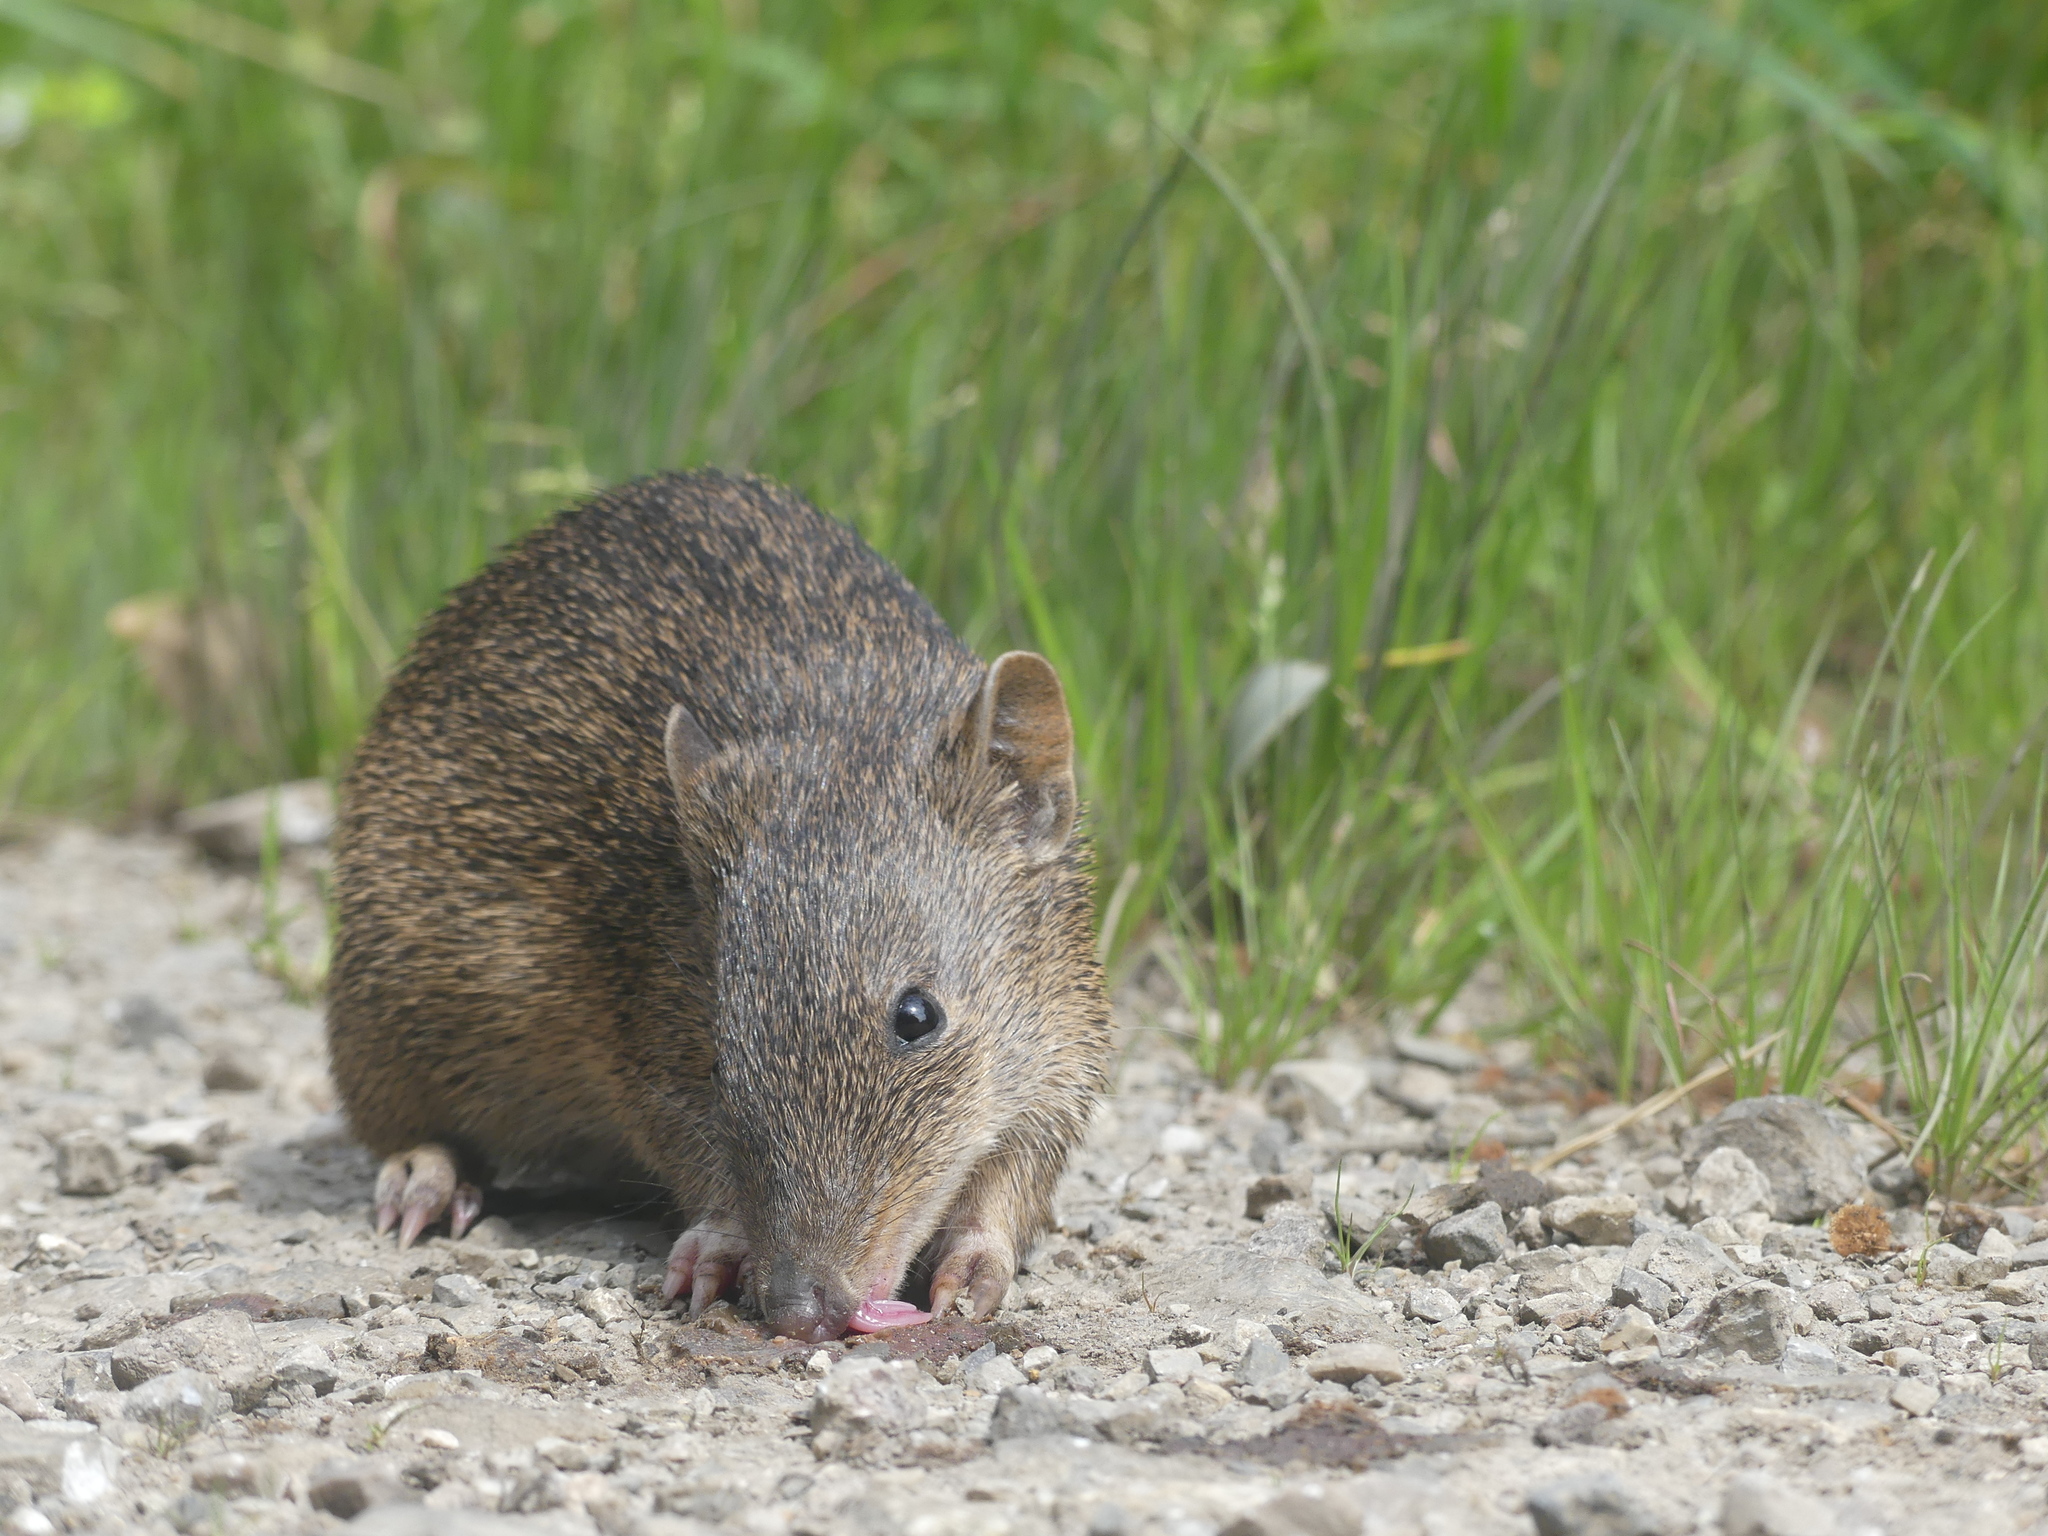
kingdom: Animalia
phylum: Chordata
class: Mammalia
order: Peramelemorphia
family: Peramelidae
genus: Isoodon
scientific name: Isoodon obesulus
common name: Southern brown bandicoot
